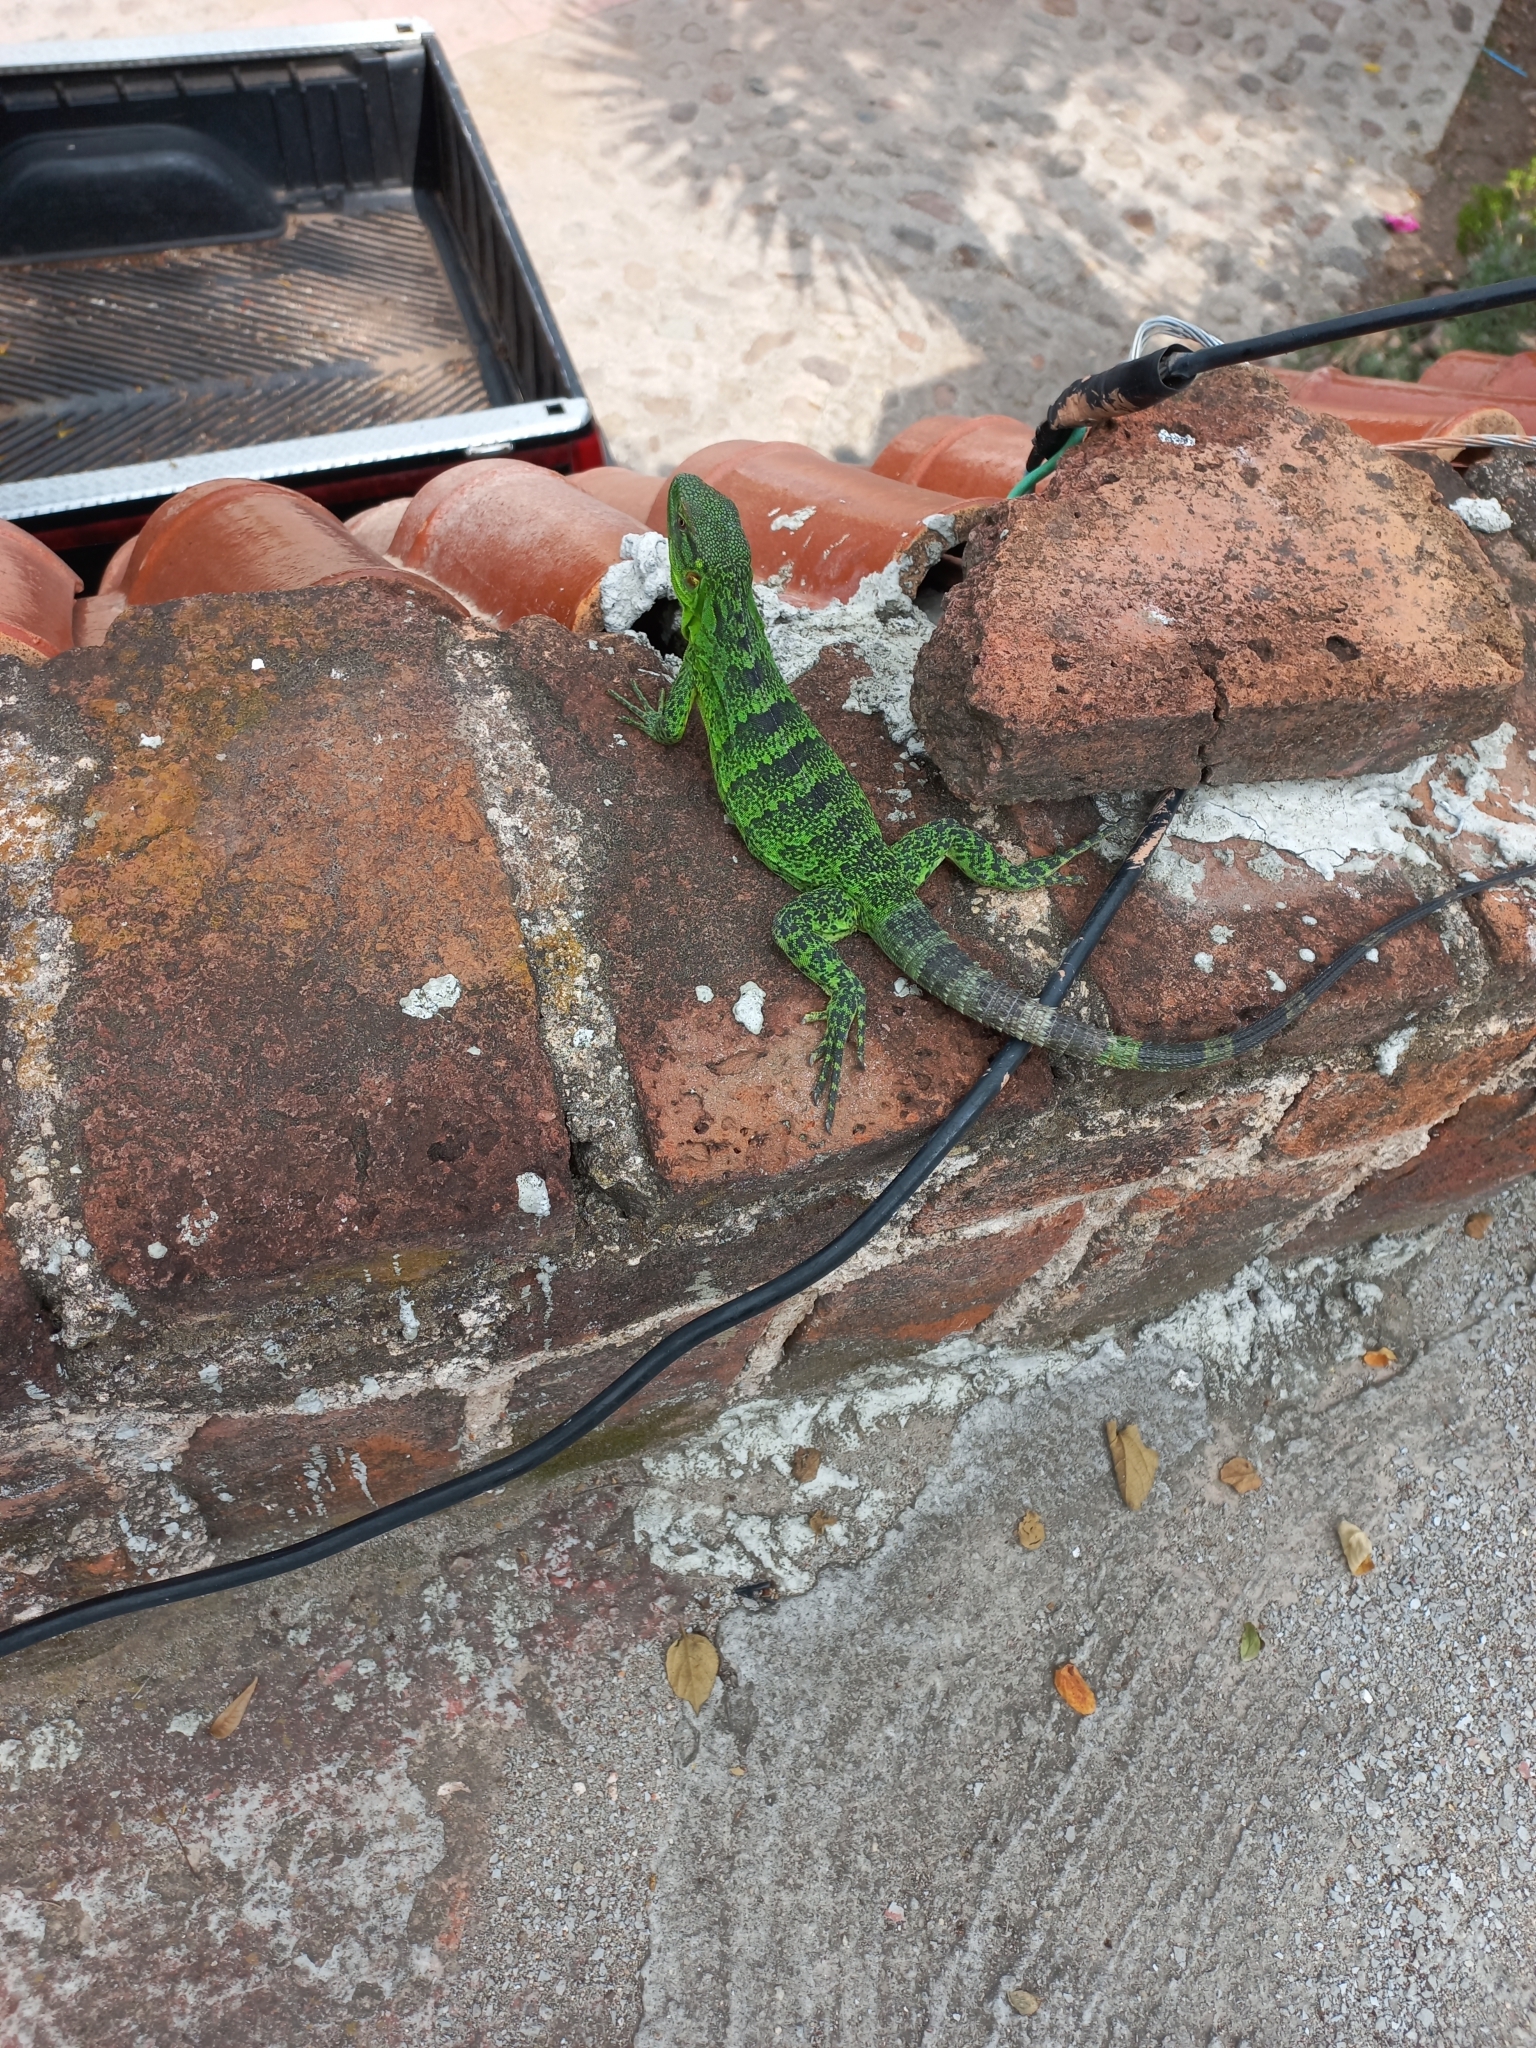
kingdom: Animalia
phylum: Chordata
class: Squamata
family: Iguanidae
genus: Ctenosaura
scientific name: Ctenosaura pectinata
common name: Guerreran spiny-tailed iguana
